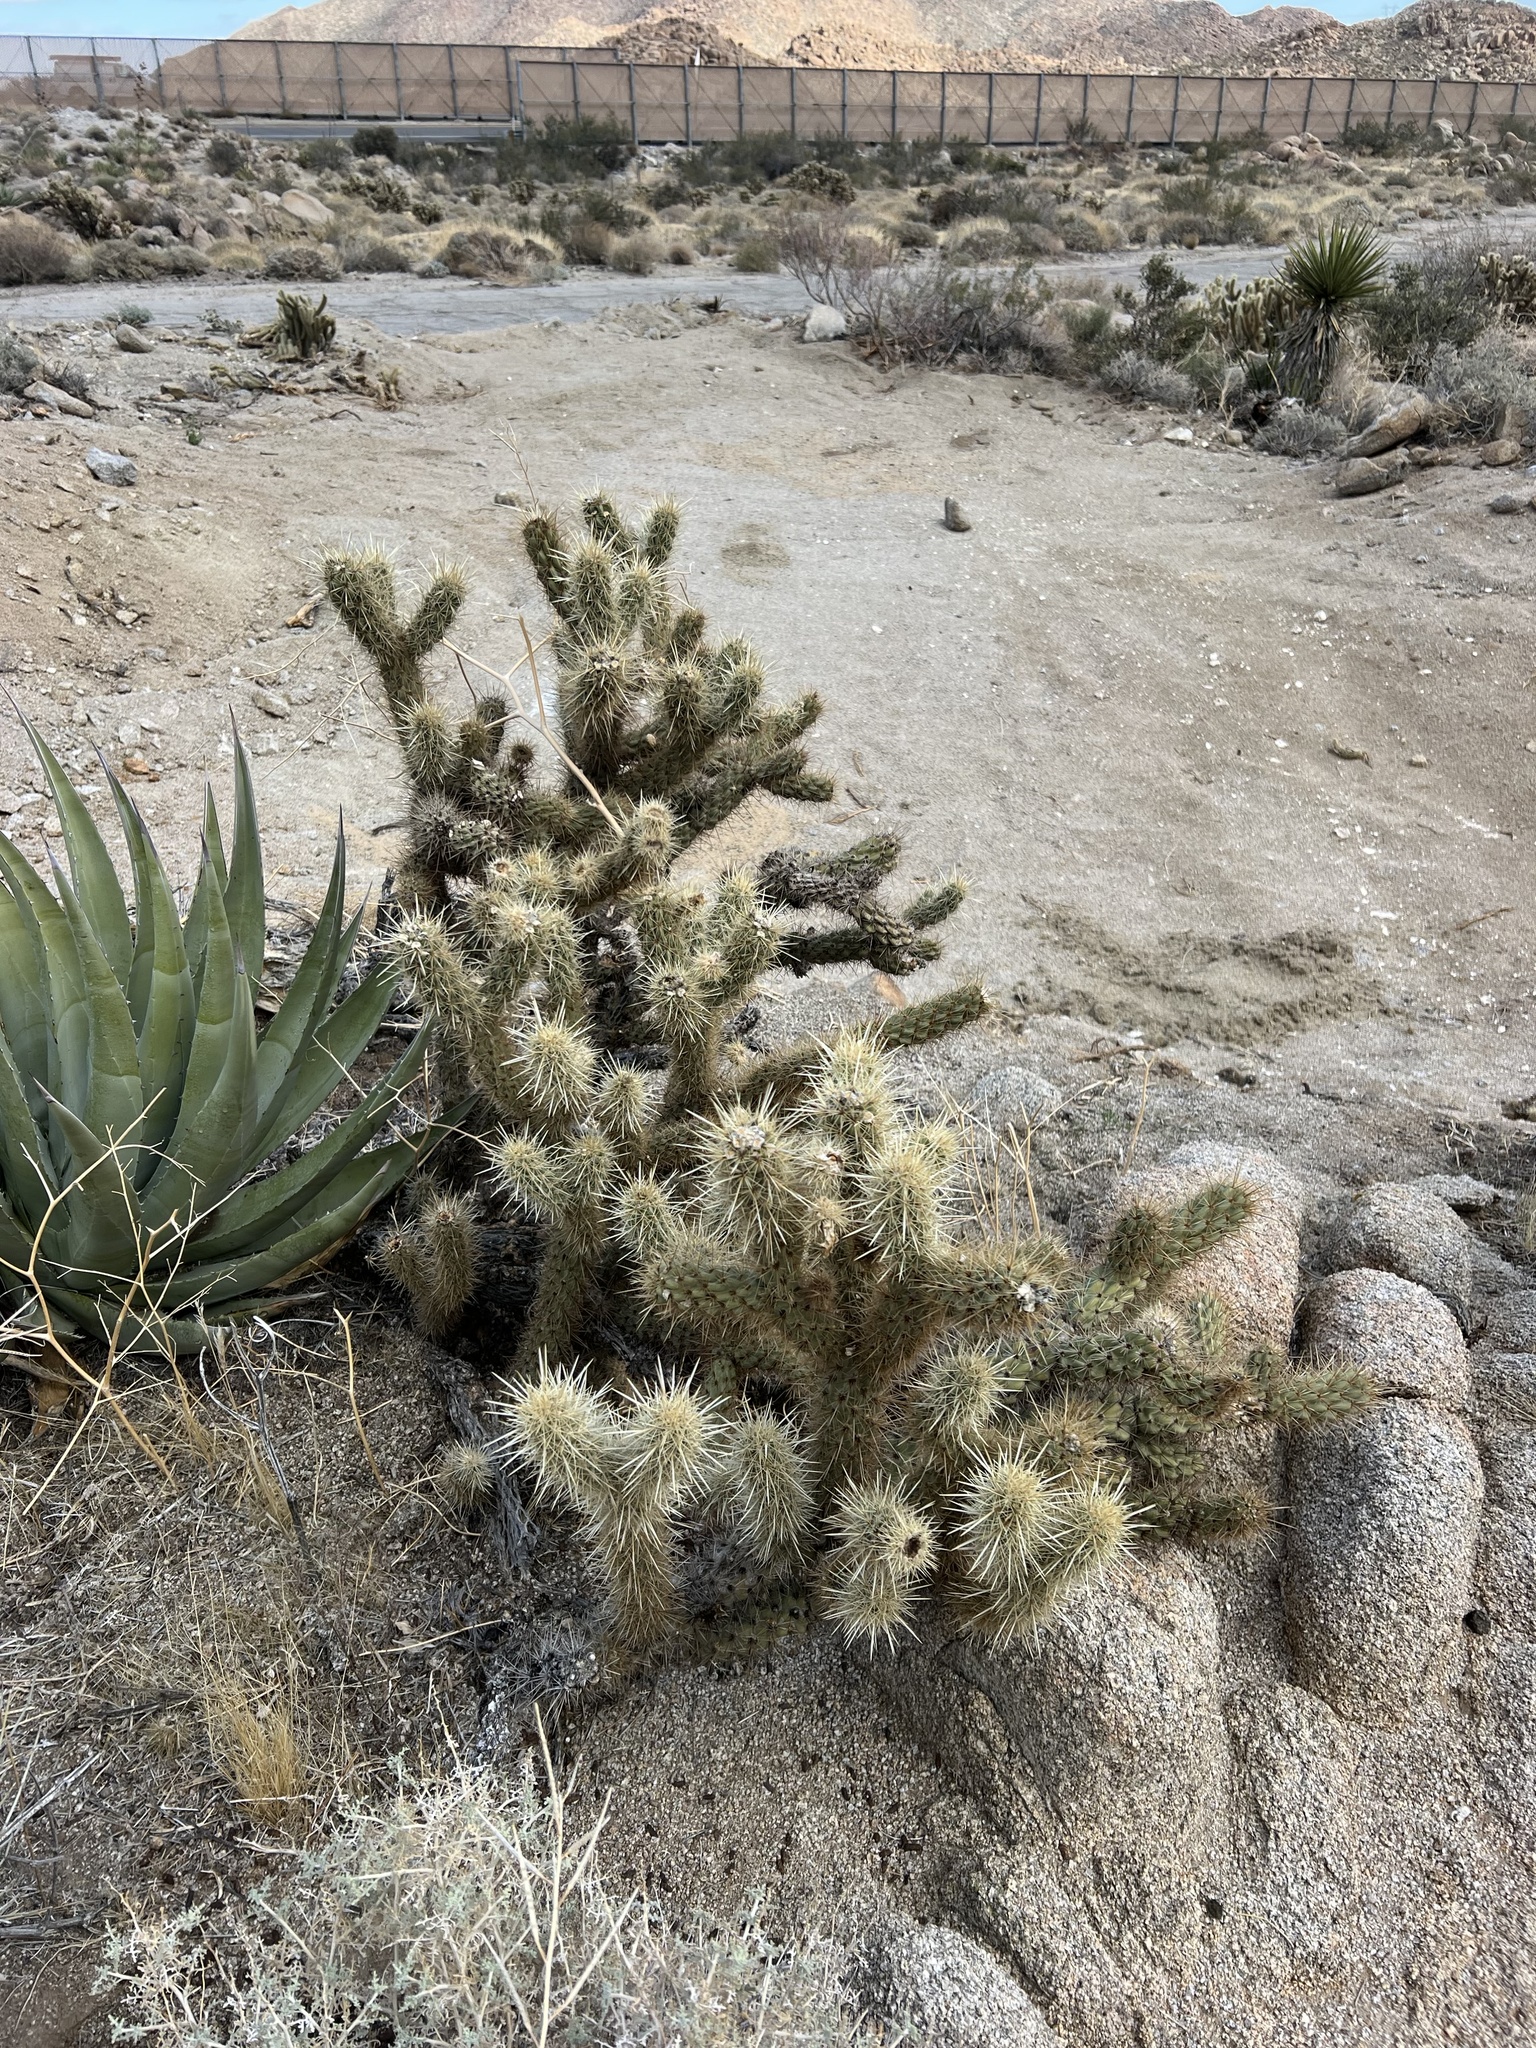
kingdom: Plantae
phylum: Tracheophyta
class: Magnoliopsida
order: Caryophyllales
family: Cactaceae
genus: Cylindropuntia
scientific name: Cylindropuntia ganderi
